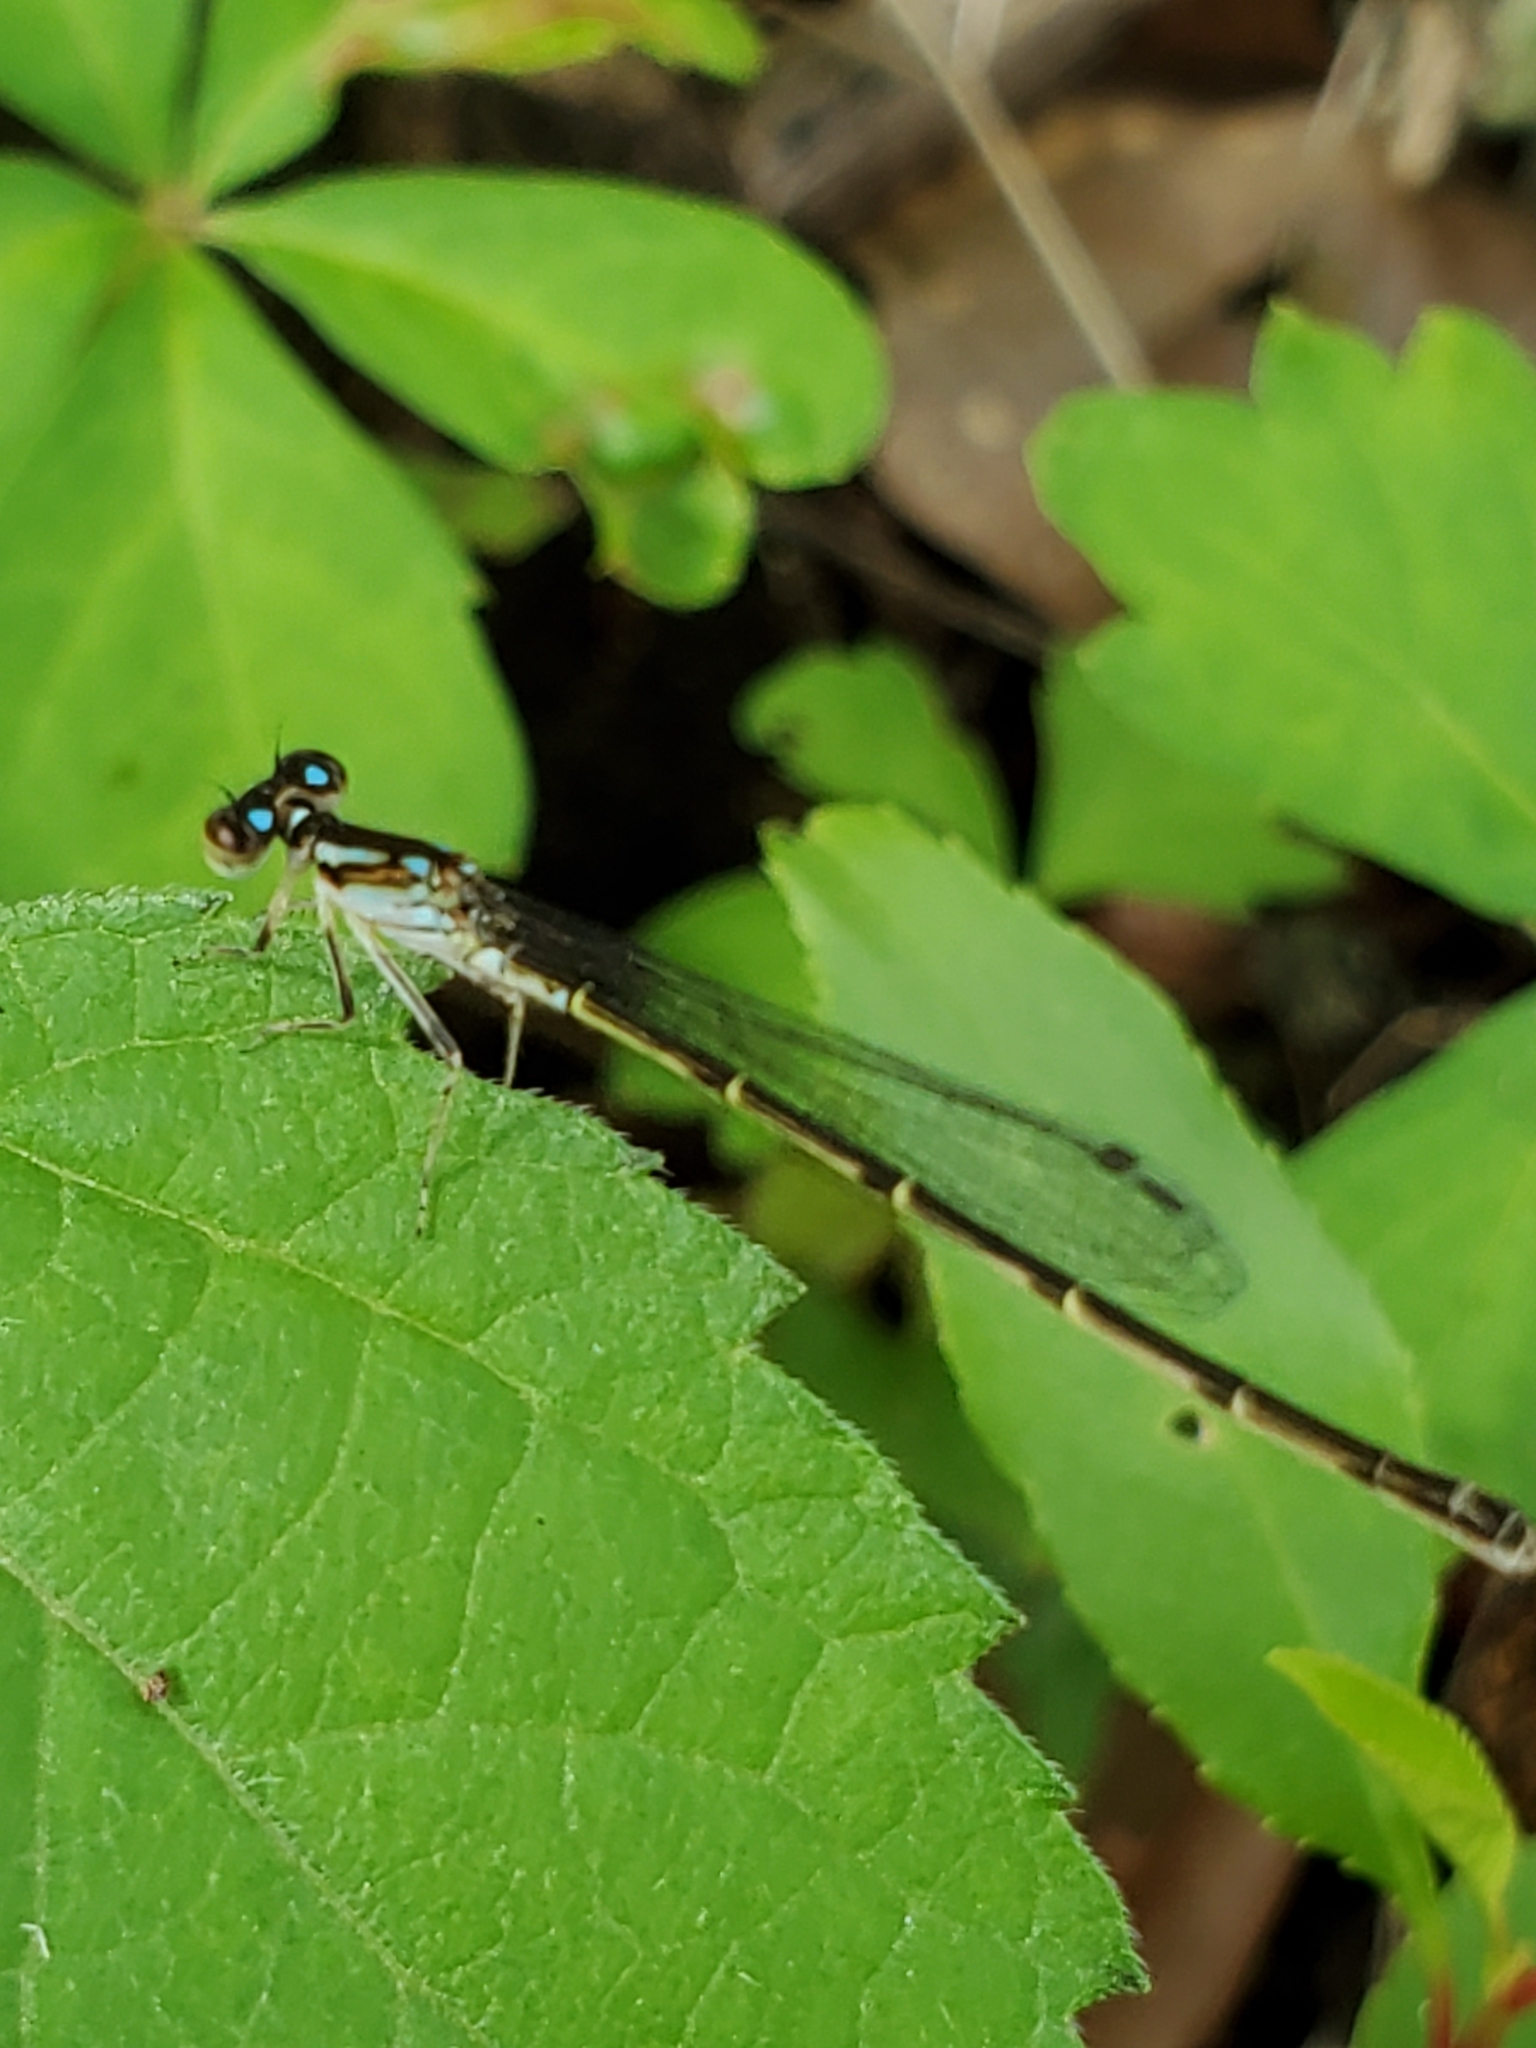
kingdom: Animalia
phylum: Arthropoda
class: Insecta
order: Odonata
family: Coenagrionidae
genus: Ischnura
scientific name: Ischnura posita
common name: Fragile forktail
